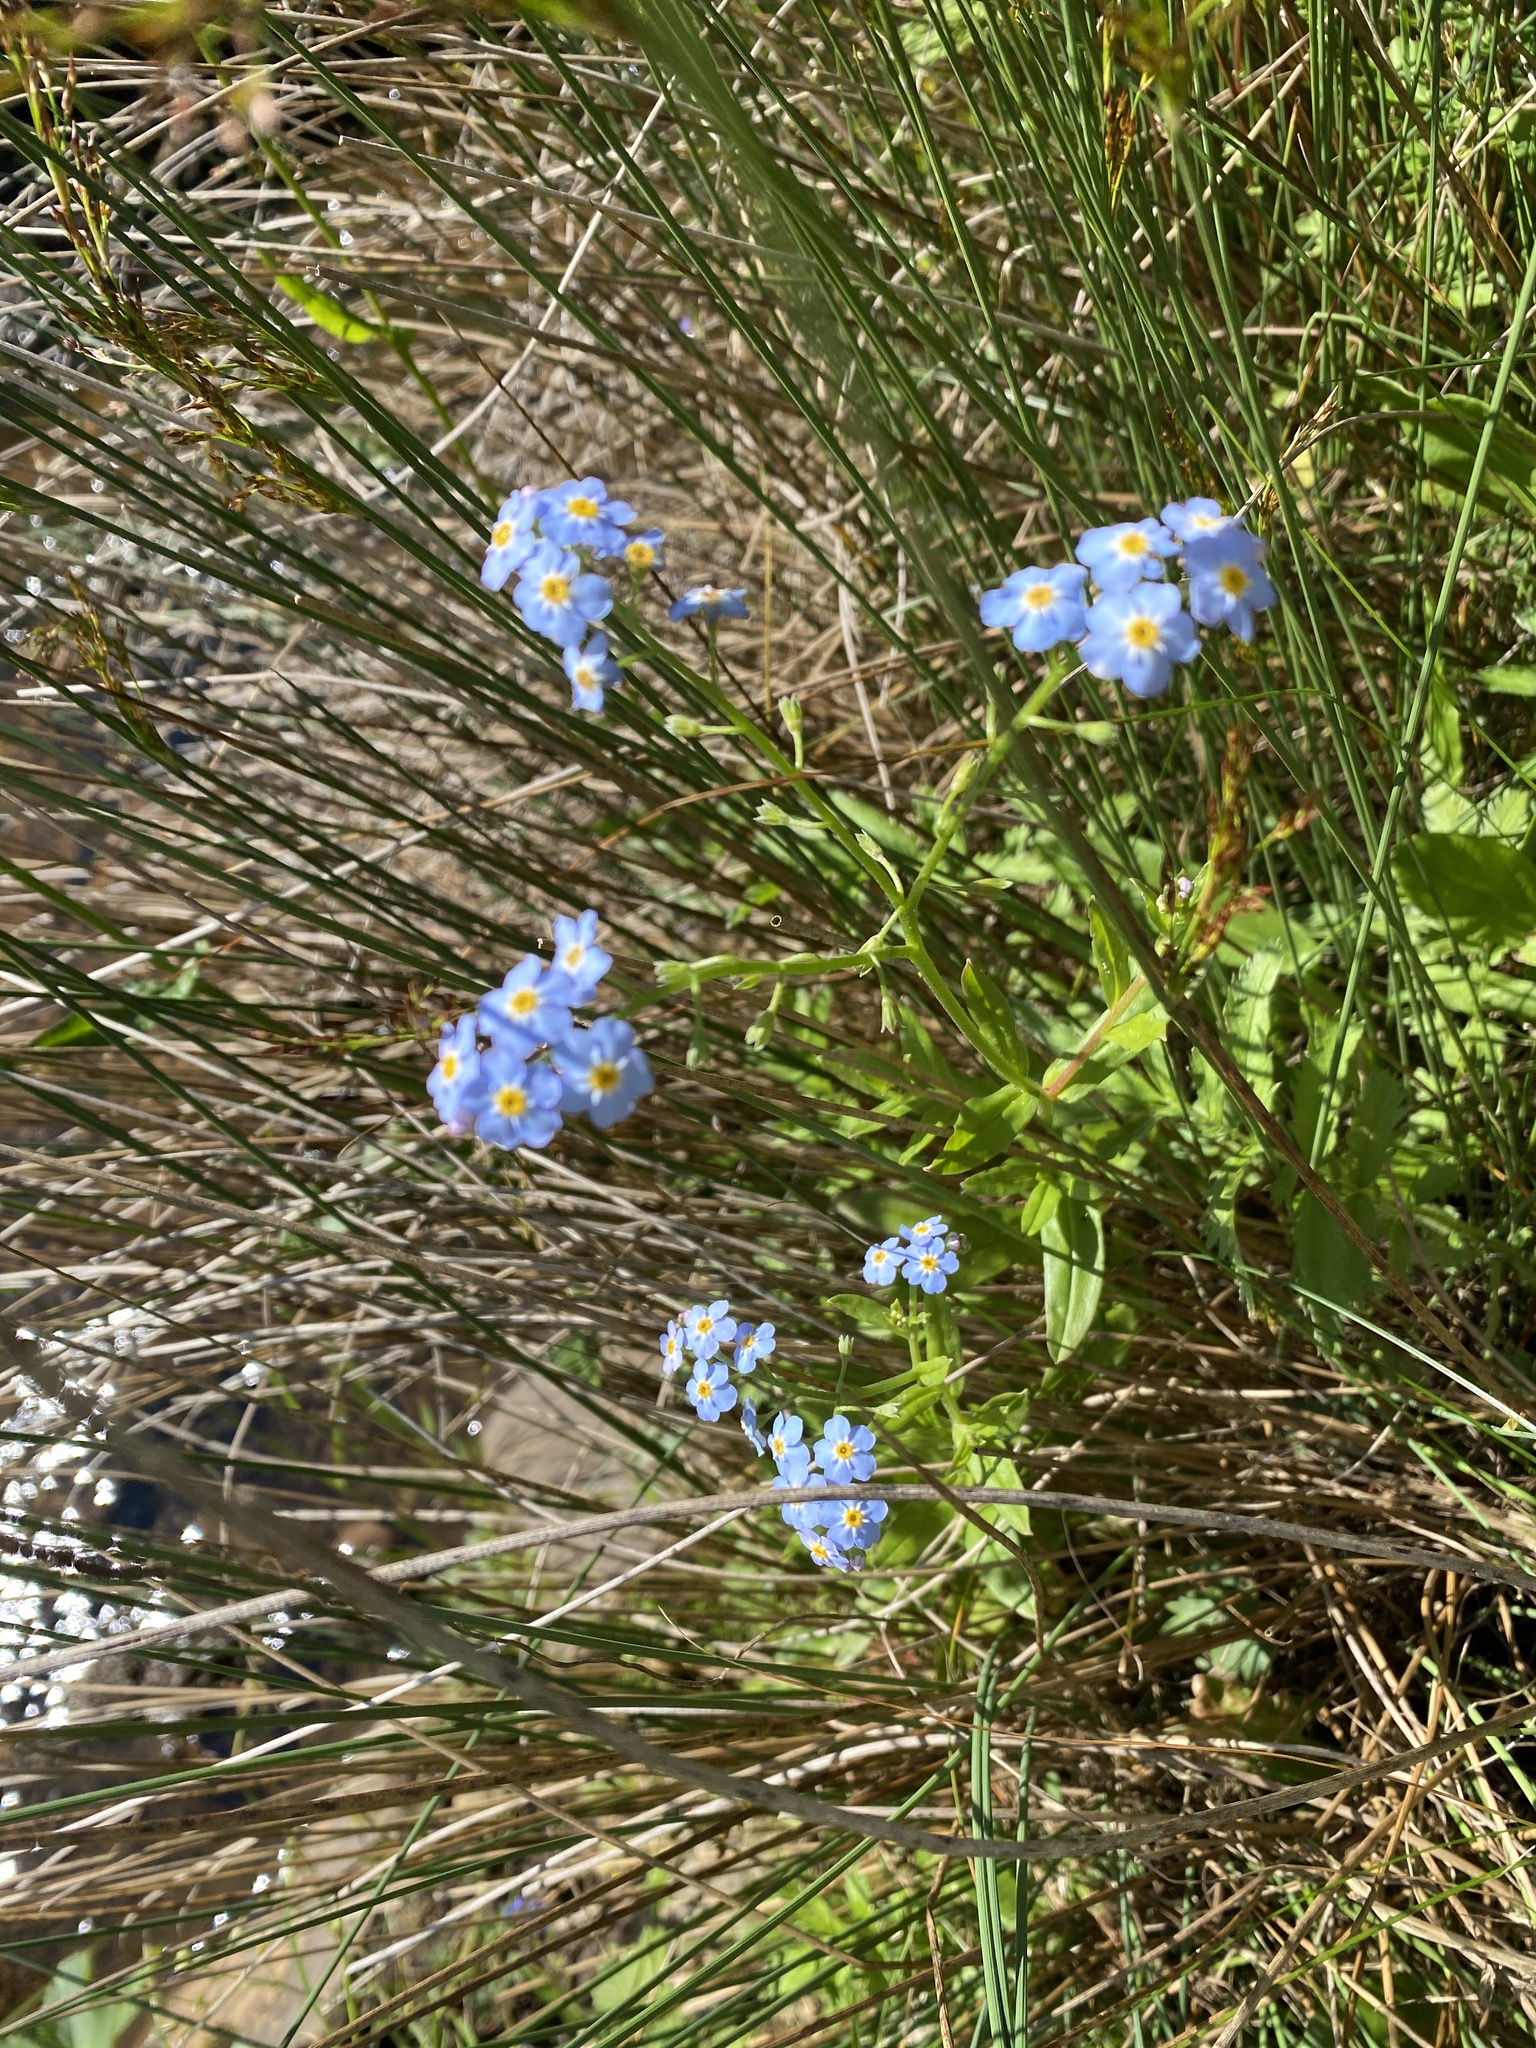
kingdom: Plantae
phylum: Tracheophyta
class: Magnoliopsida
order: Boraginales
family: Boraginaceae
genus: Myosotis
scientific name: Myosotis scorpioides
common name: Water forget-me-not
